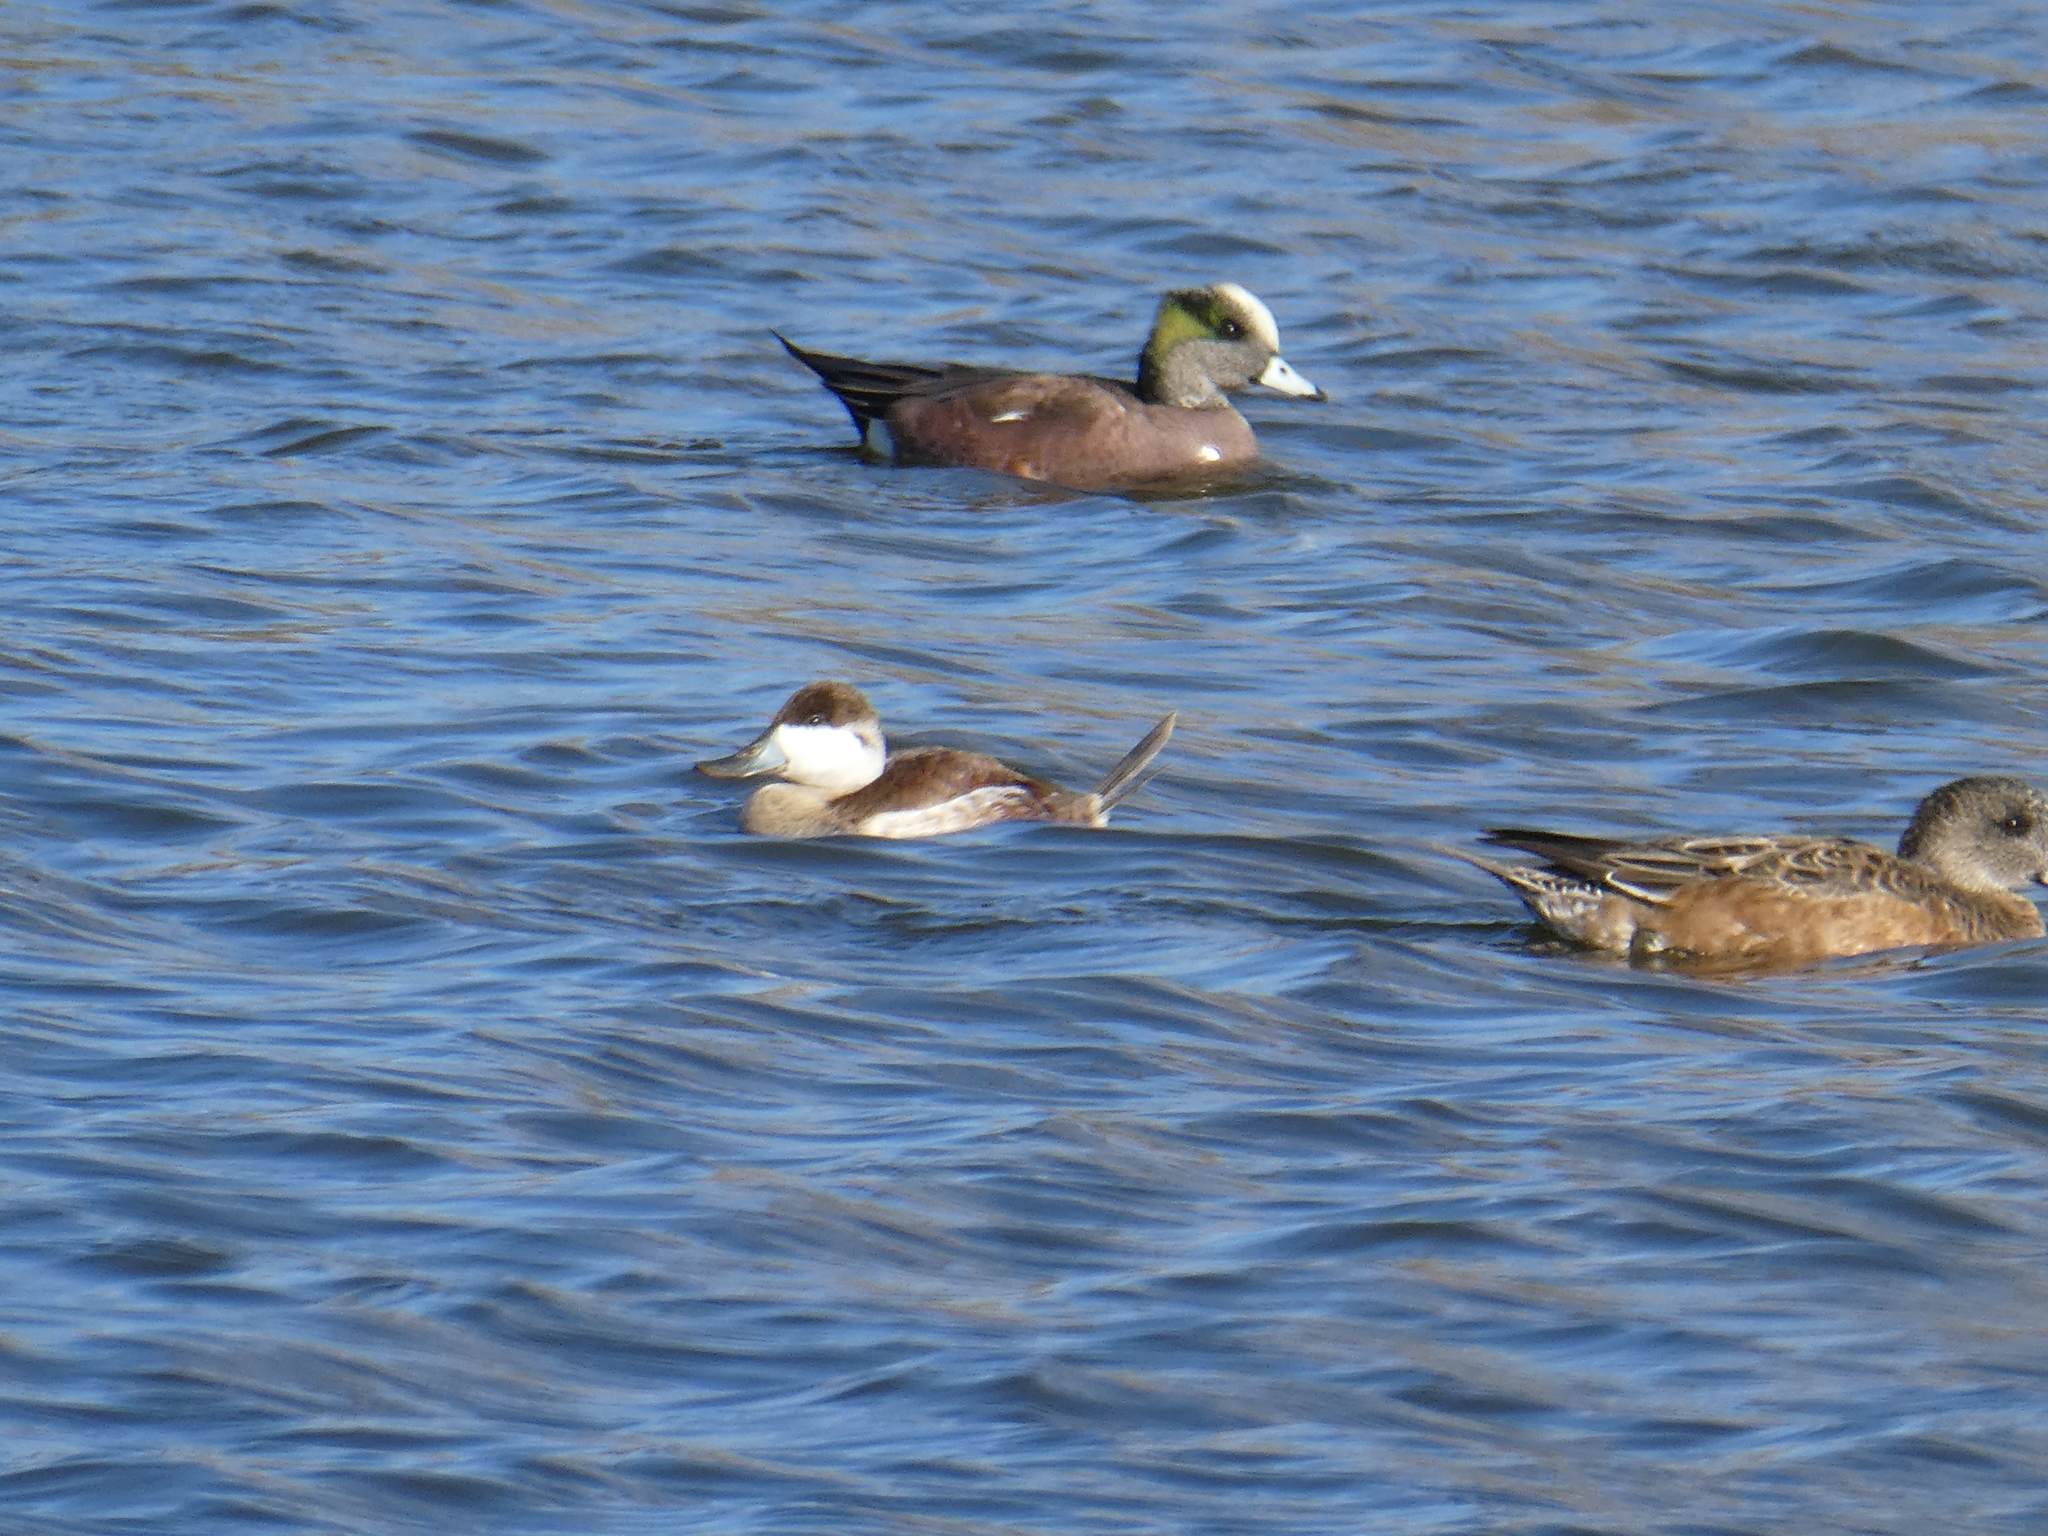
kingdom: Animalia
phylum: Chordata
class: Aves
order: Anseriformes
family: Anatidae
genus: Oxyura
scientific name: Oxyura jamaicensis
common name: Ruddy duck
